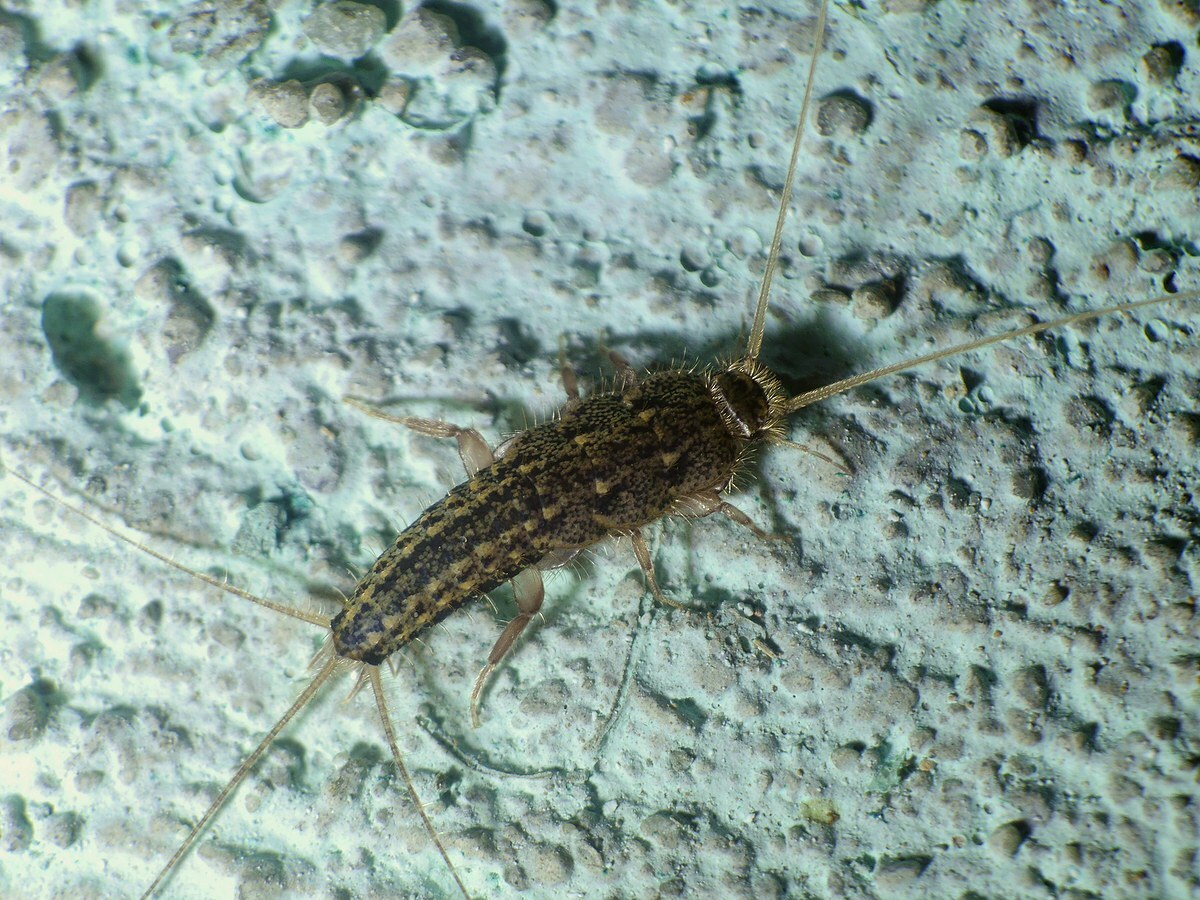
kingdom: Animalia
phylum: Arthropoda
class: Insecta
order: Zygentoma
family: Lepismatidae
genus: Ctenolepisma
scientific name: Ctenolepisma lineata
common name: Four-lined silverfish
